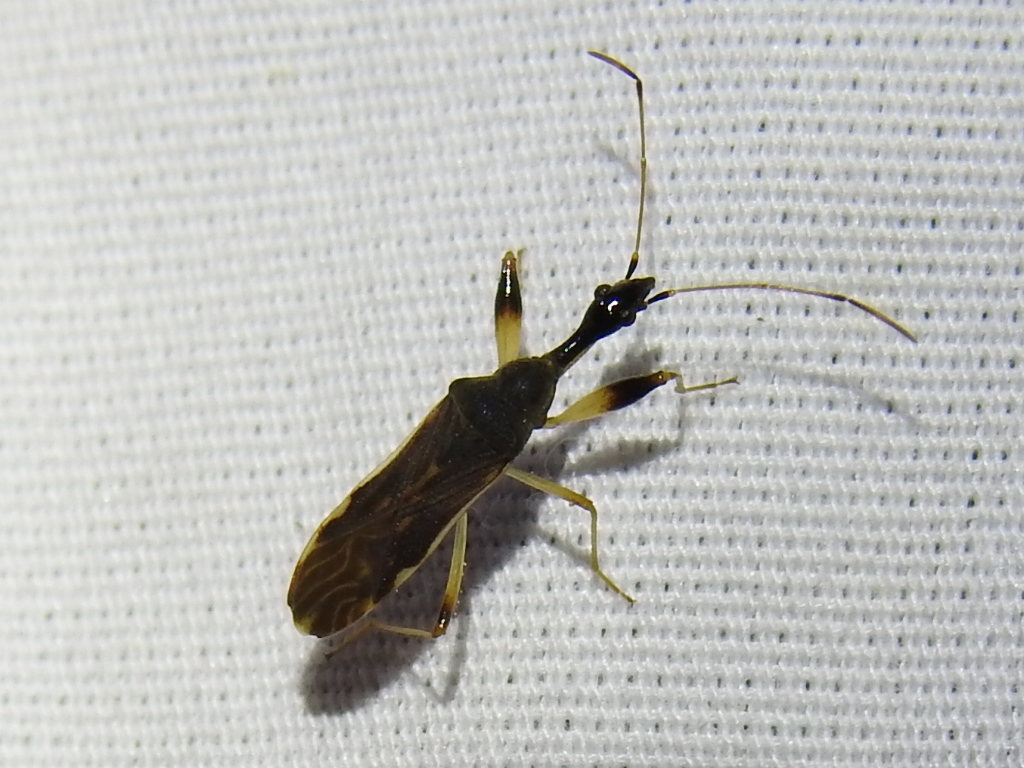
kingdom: Animalia
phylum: Arthropoda
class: Insecta
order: Hemiptera
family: Rhyparochromidae
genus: Myodocha
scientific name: Myodocha serripes
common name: Long-necked seed bug
